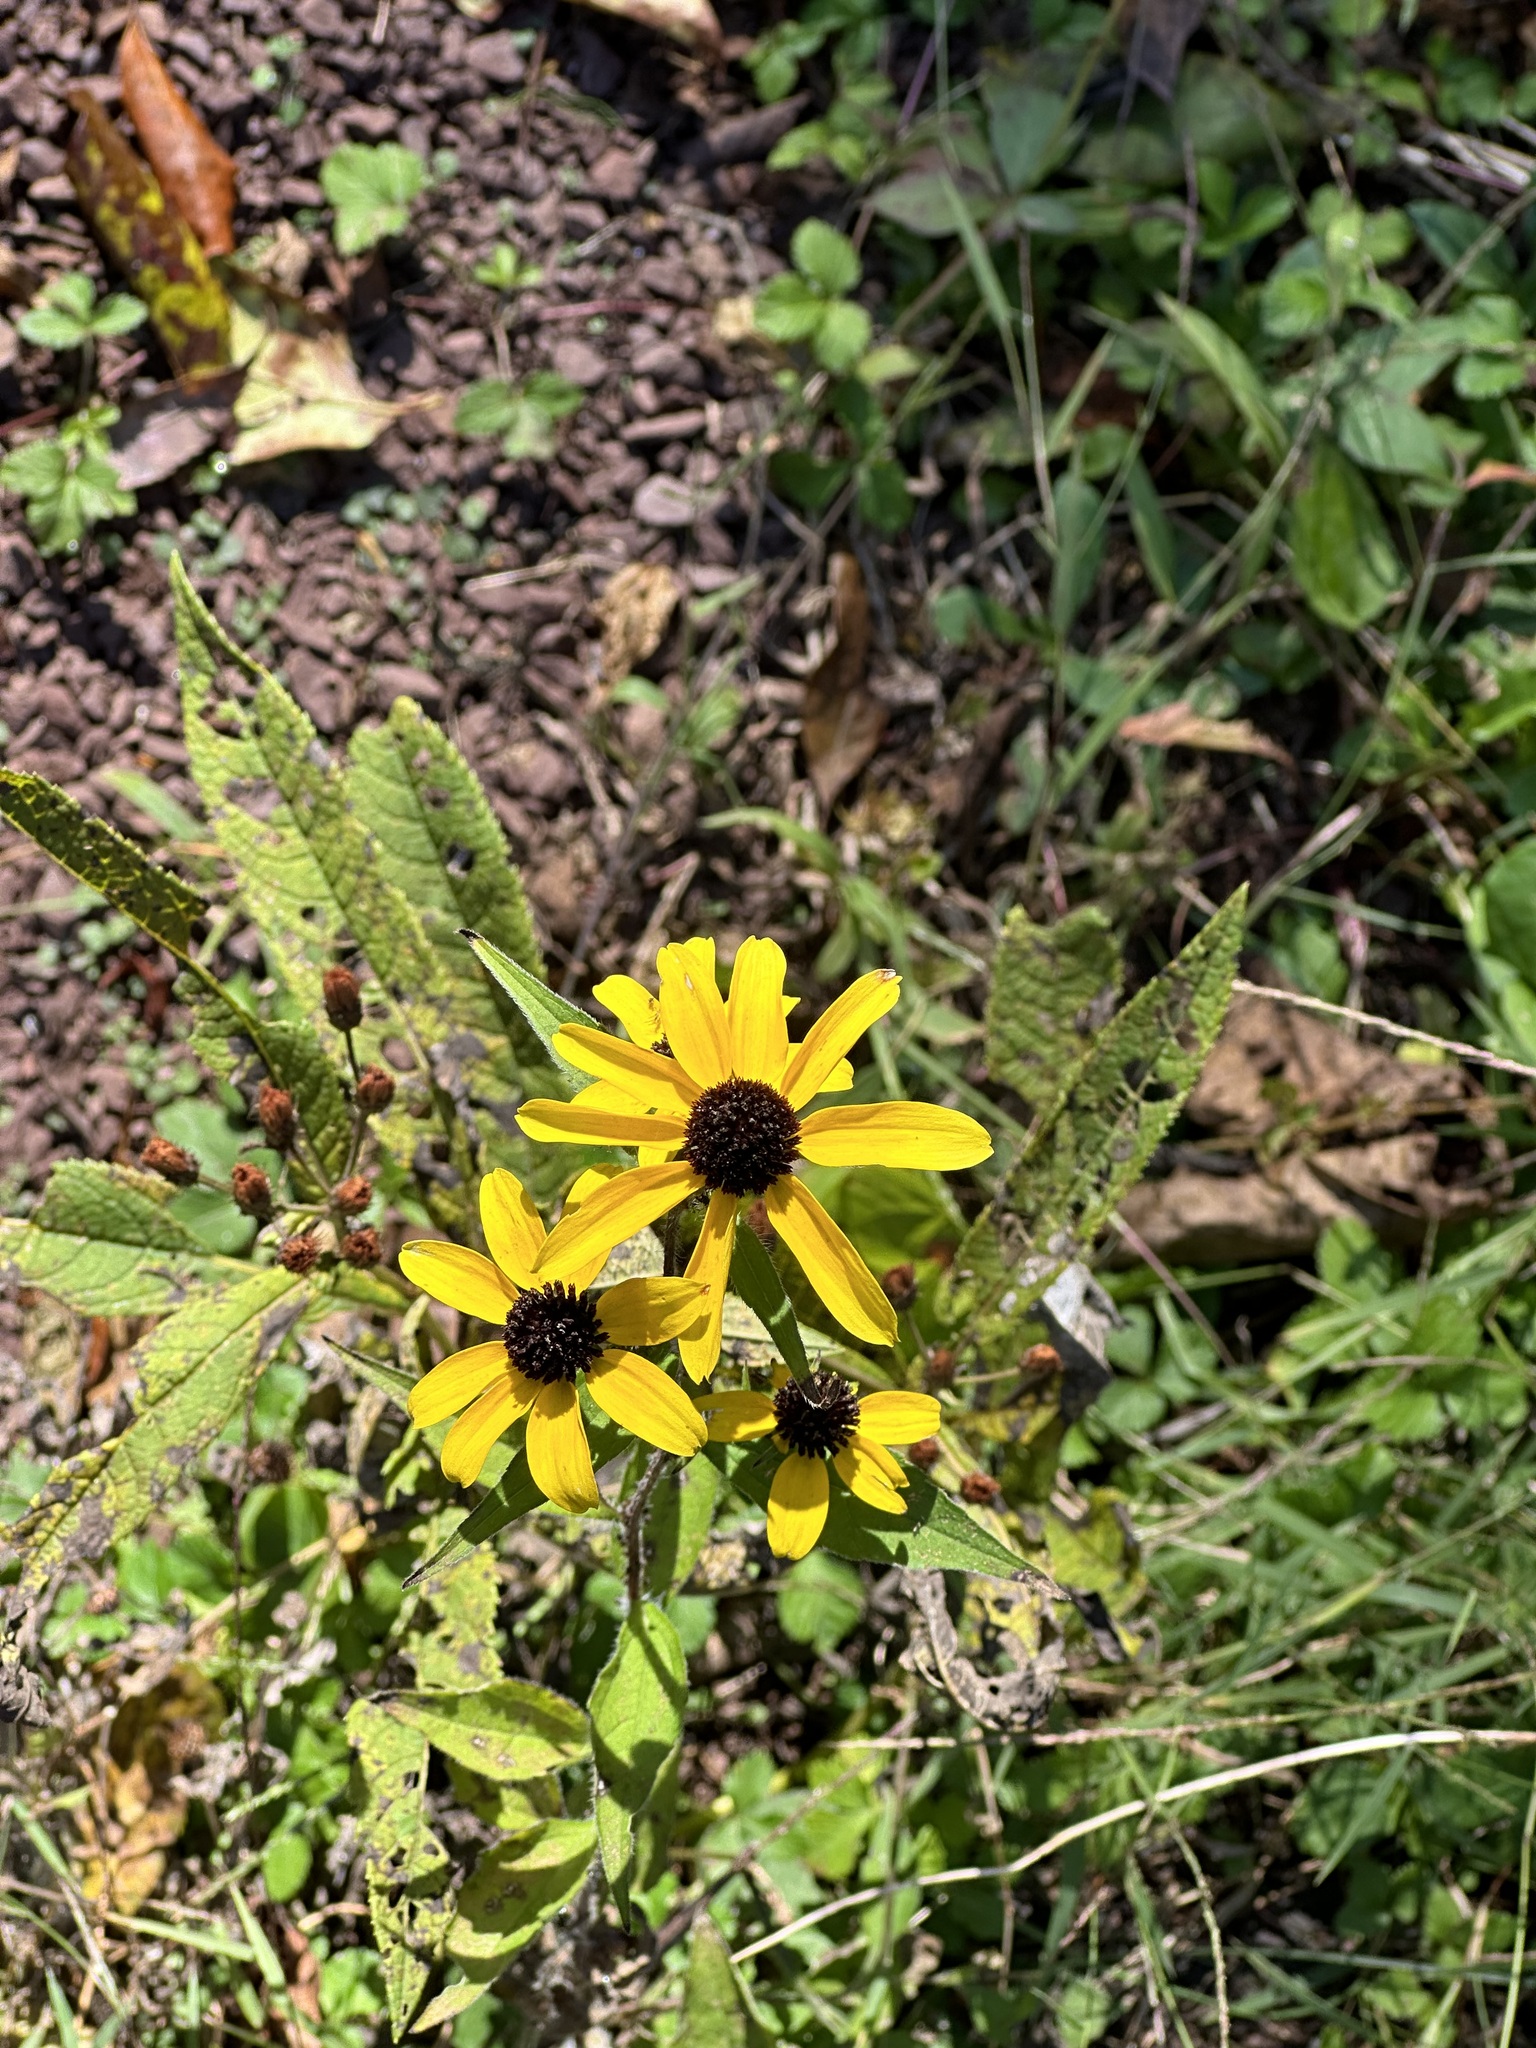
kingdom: Plantae
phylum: Tracheophyta
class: Magnoliopsida
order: Asterales
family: Asteraceae
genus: Rudbeckia
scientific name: Rudbeckia hirta
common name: Black-eyed-susan
